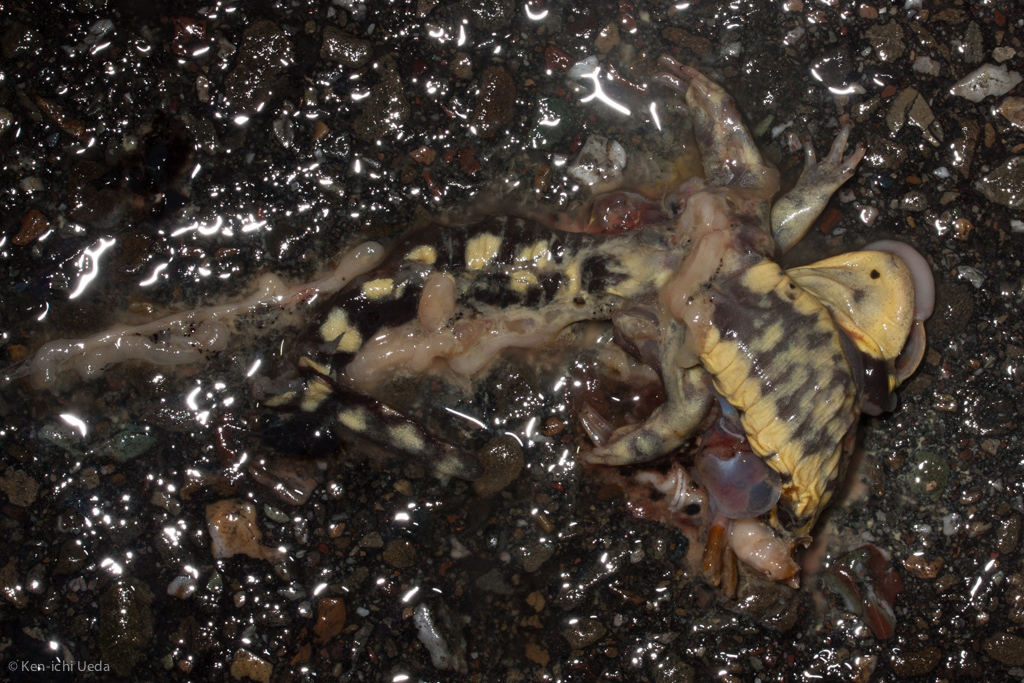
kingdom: Animalia
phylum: Chordata
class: Amphibia
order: Caudata
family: Ambystomatidae
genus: Ambystoma
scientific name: Ambystoma californiense
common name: California tiger salamander
